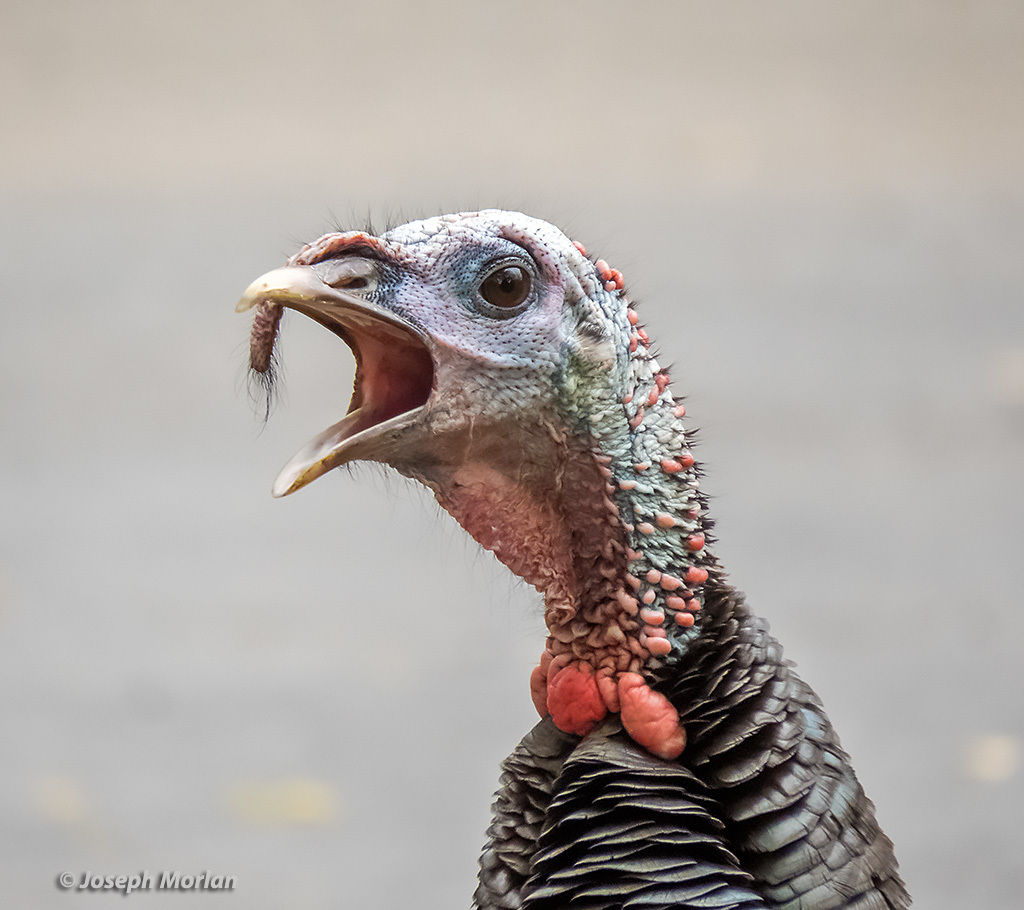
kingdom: Animalia
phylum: Chordata
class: Aves
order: Galliformes
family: Phasianidae
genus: Meleagris
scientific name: Meleagris gallopavo
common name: Wild turkey
